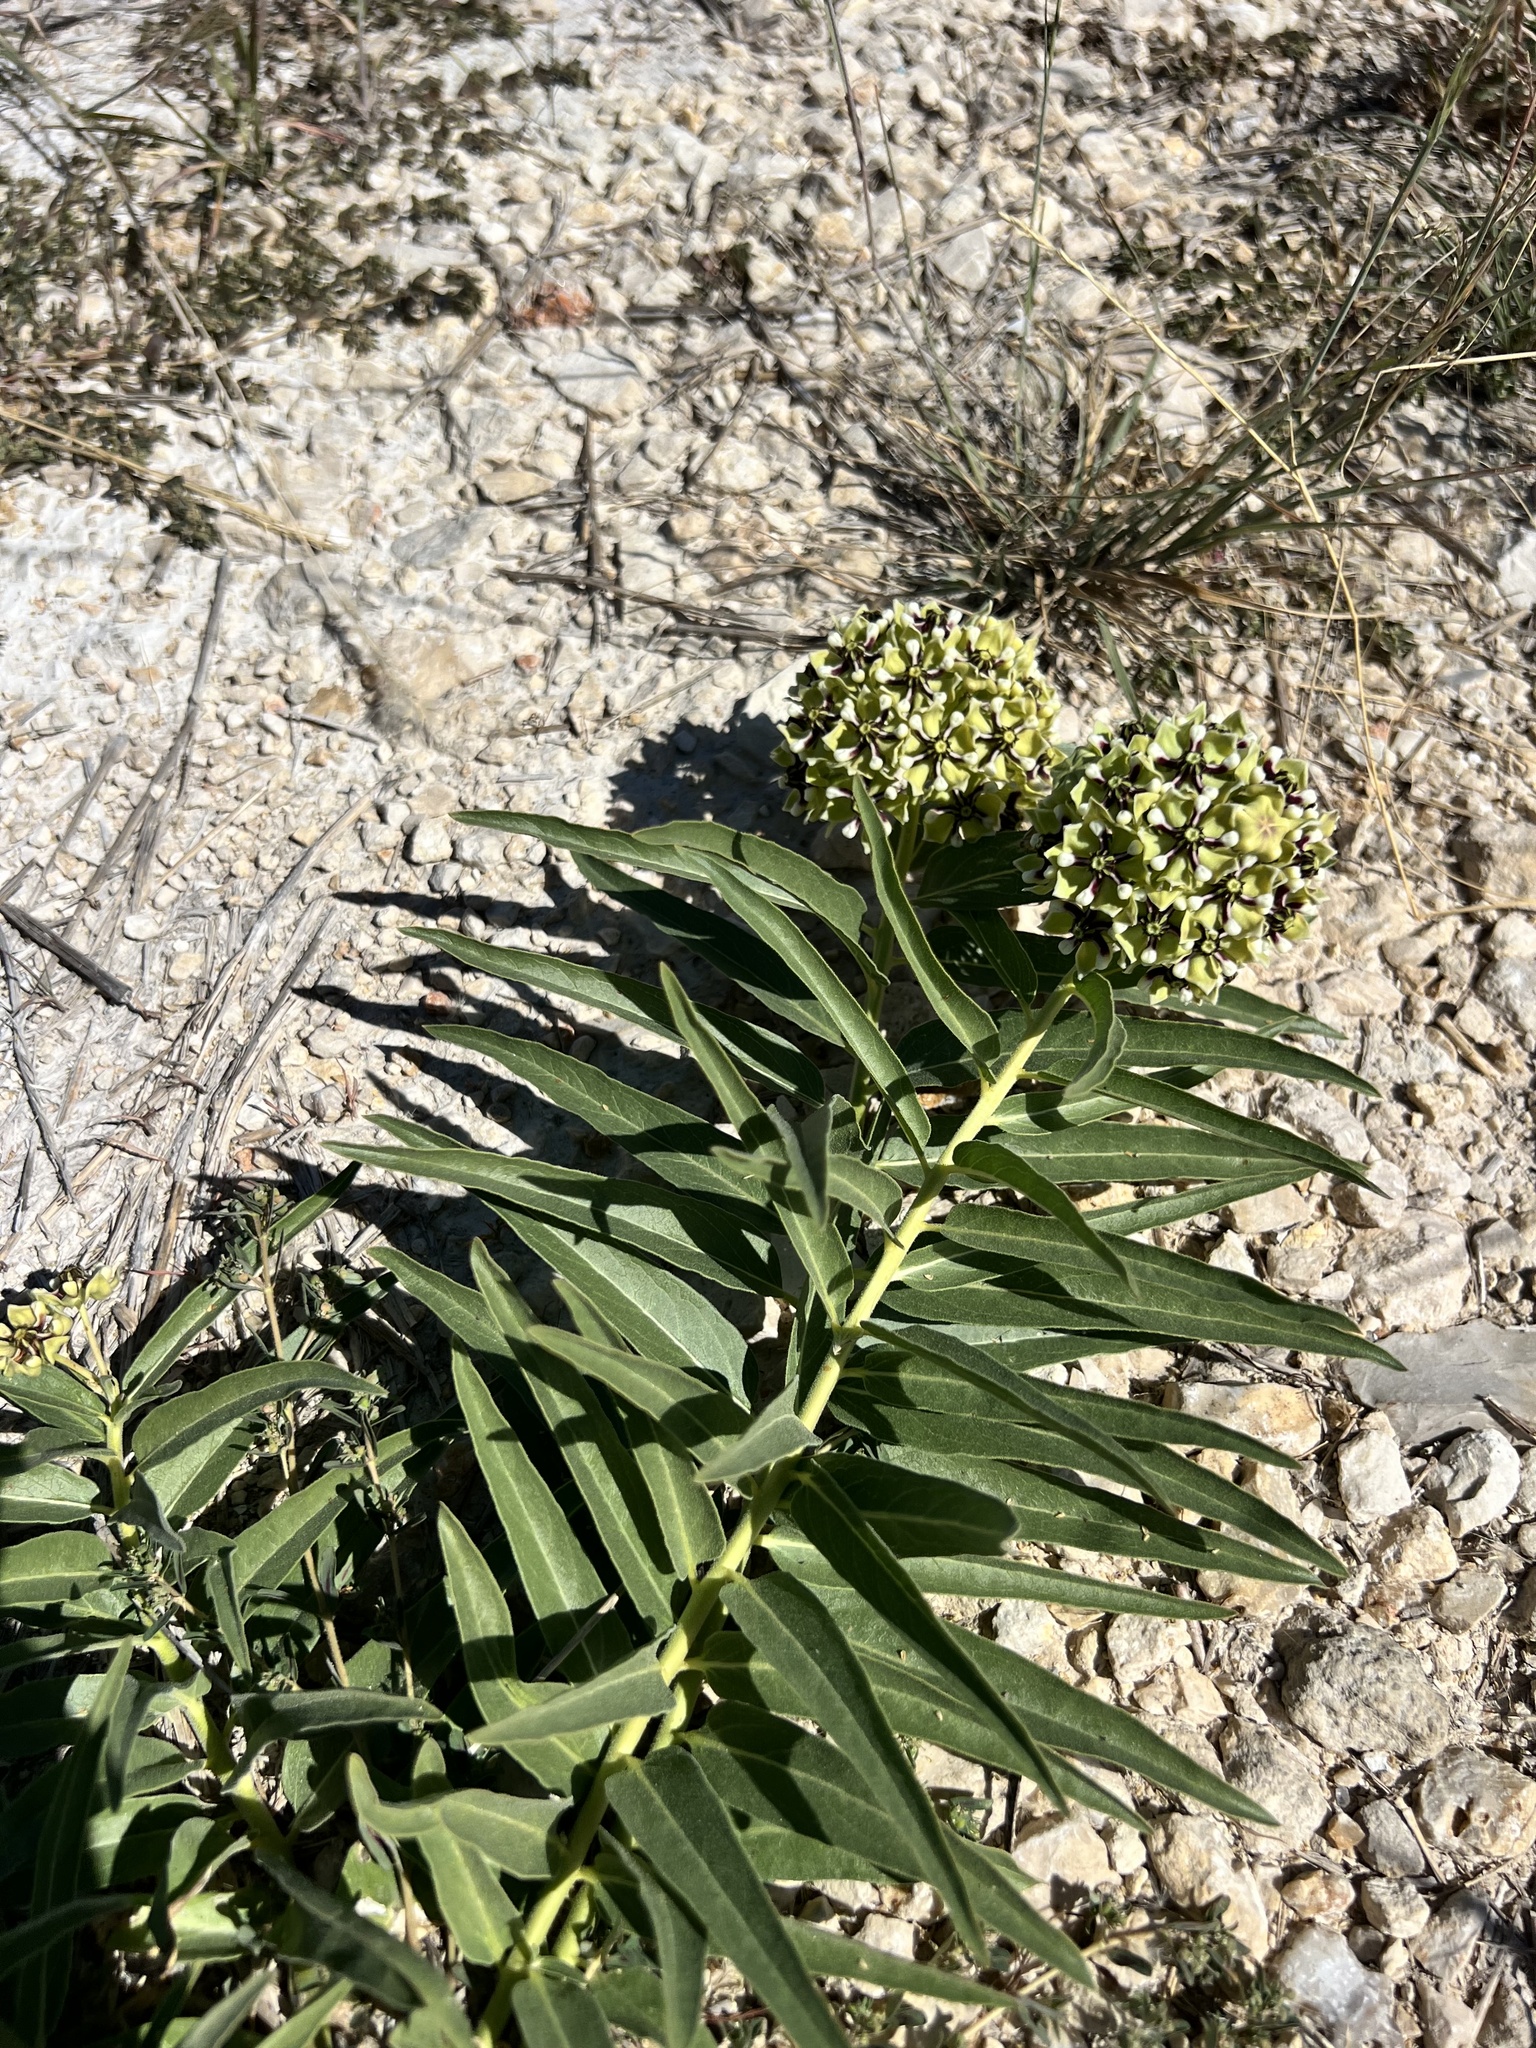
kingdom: Plantae
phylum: Tracheophyta
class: Magnoliopsida
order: Gentianales
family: Apocynaceae
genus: Asclepias
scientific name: Asclepias asperula
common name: Antelope horns
